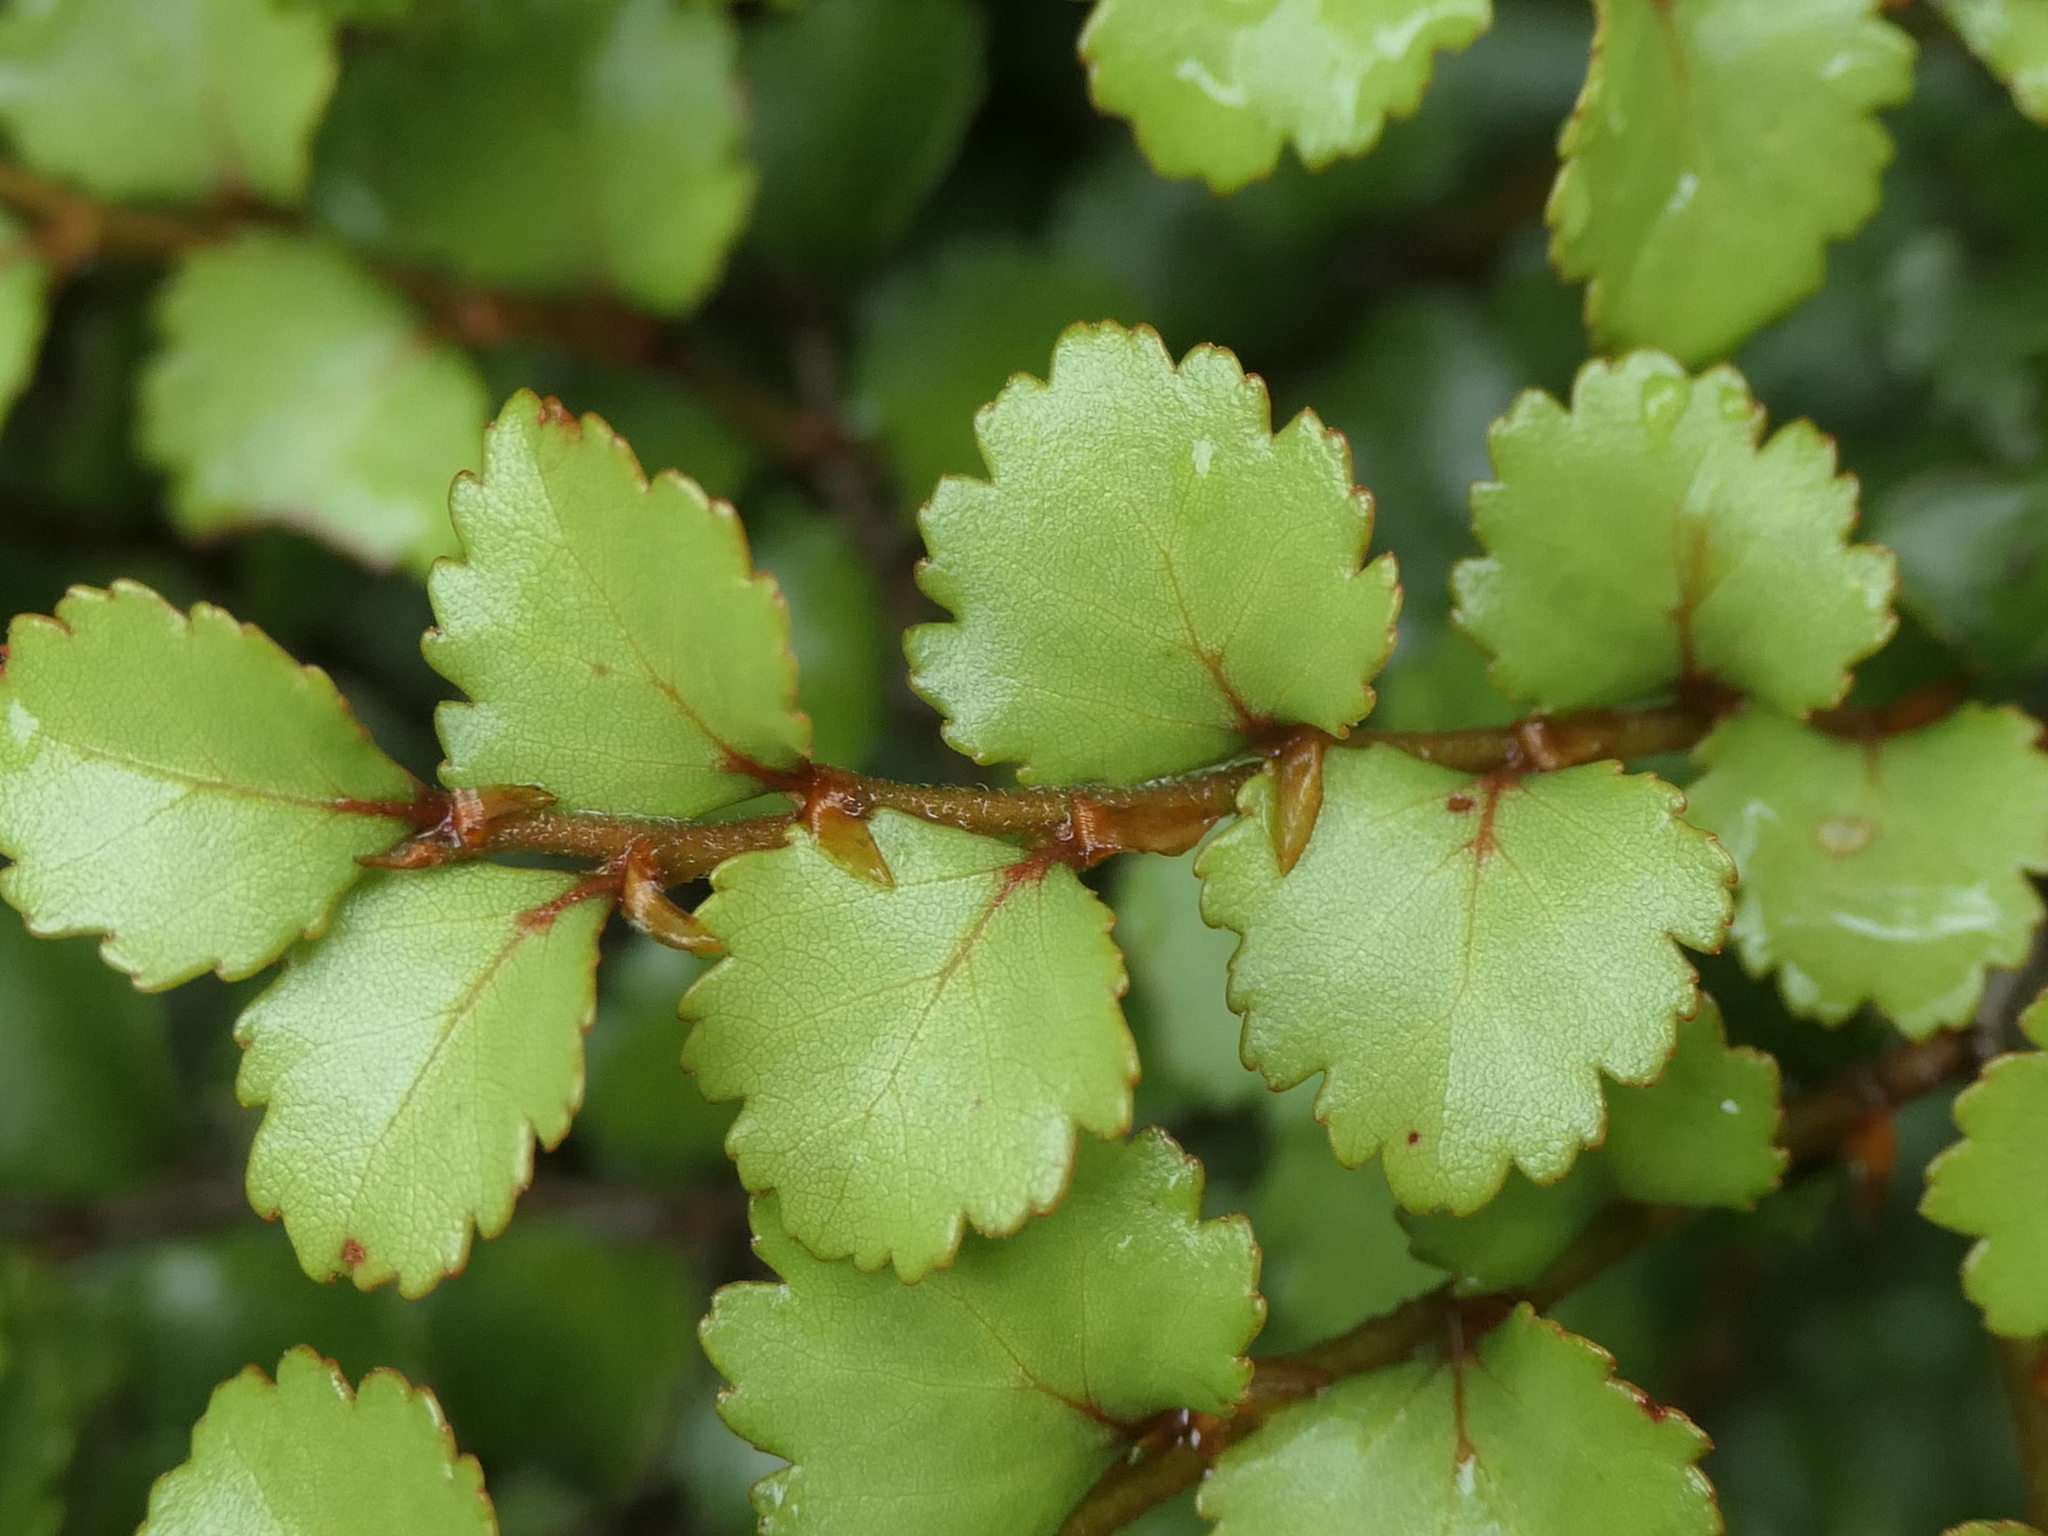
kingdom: Plantae
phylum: Tracheophyta
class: Magnoliopsida
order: Fagales
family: Nothofagaceae
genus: Nothofagus
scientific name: Nothofagus menziesii
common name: Silver beech
